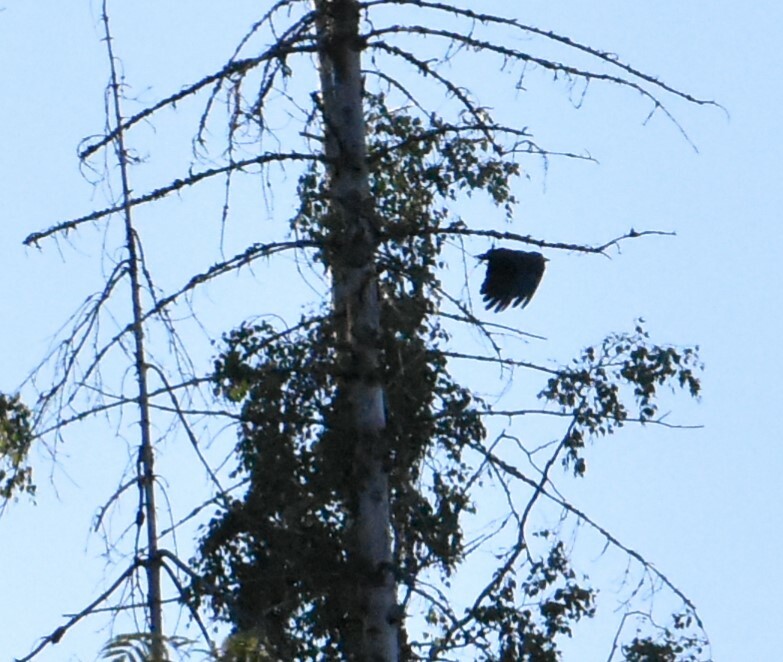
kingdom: Animalia
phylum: Chordata
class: Aves
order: Piciformes
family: Picidae
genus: Dryocopus
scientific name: Dryocopus martius
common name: Black woodpecker
